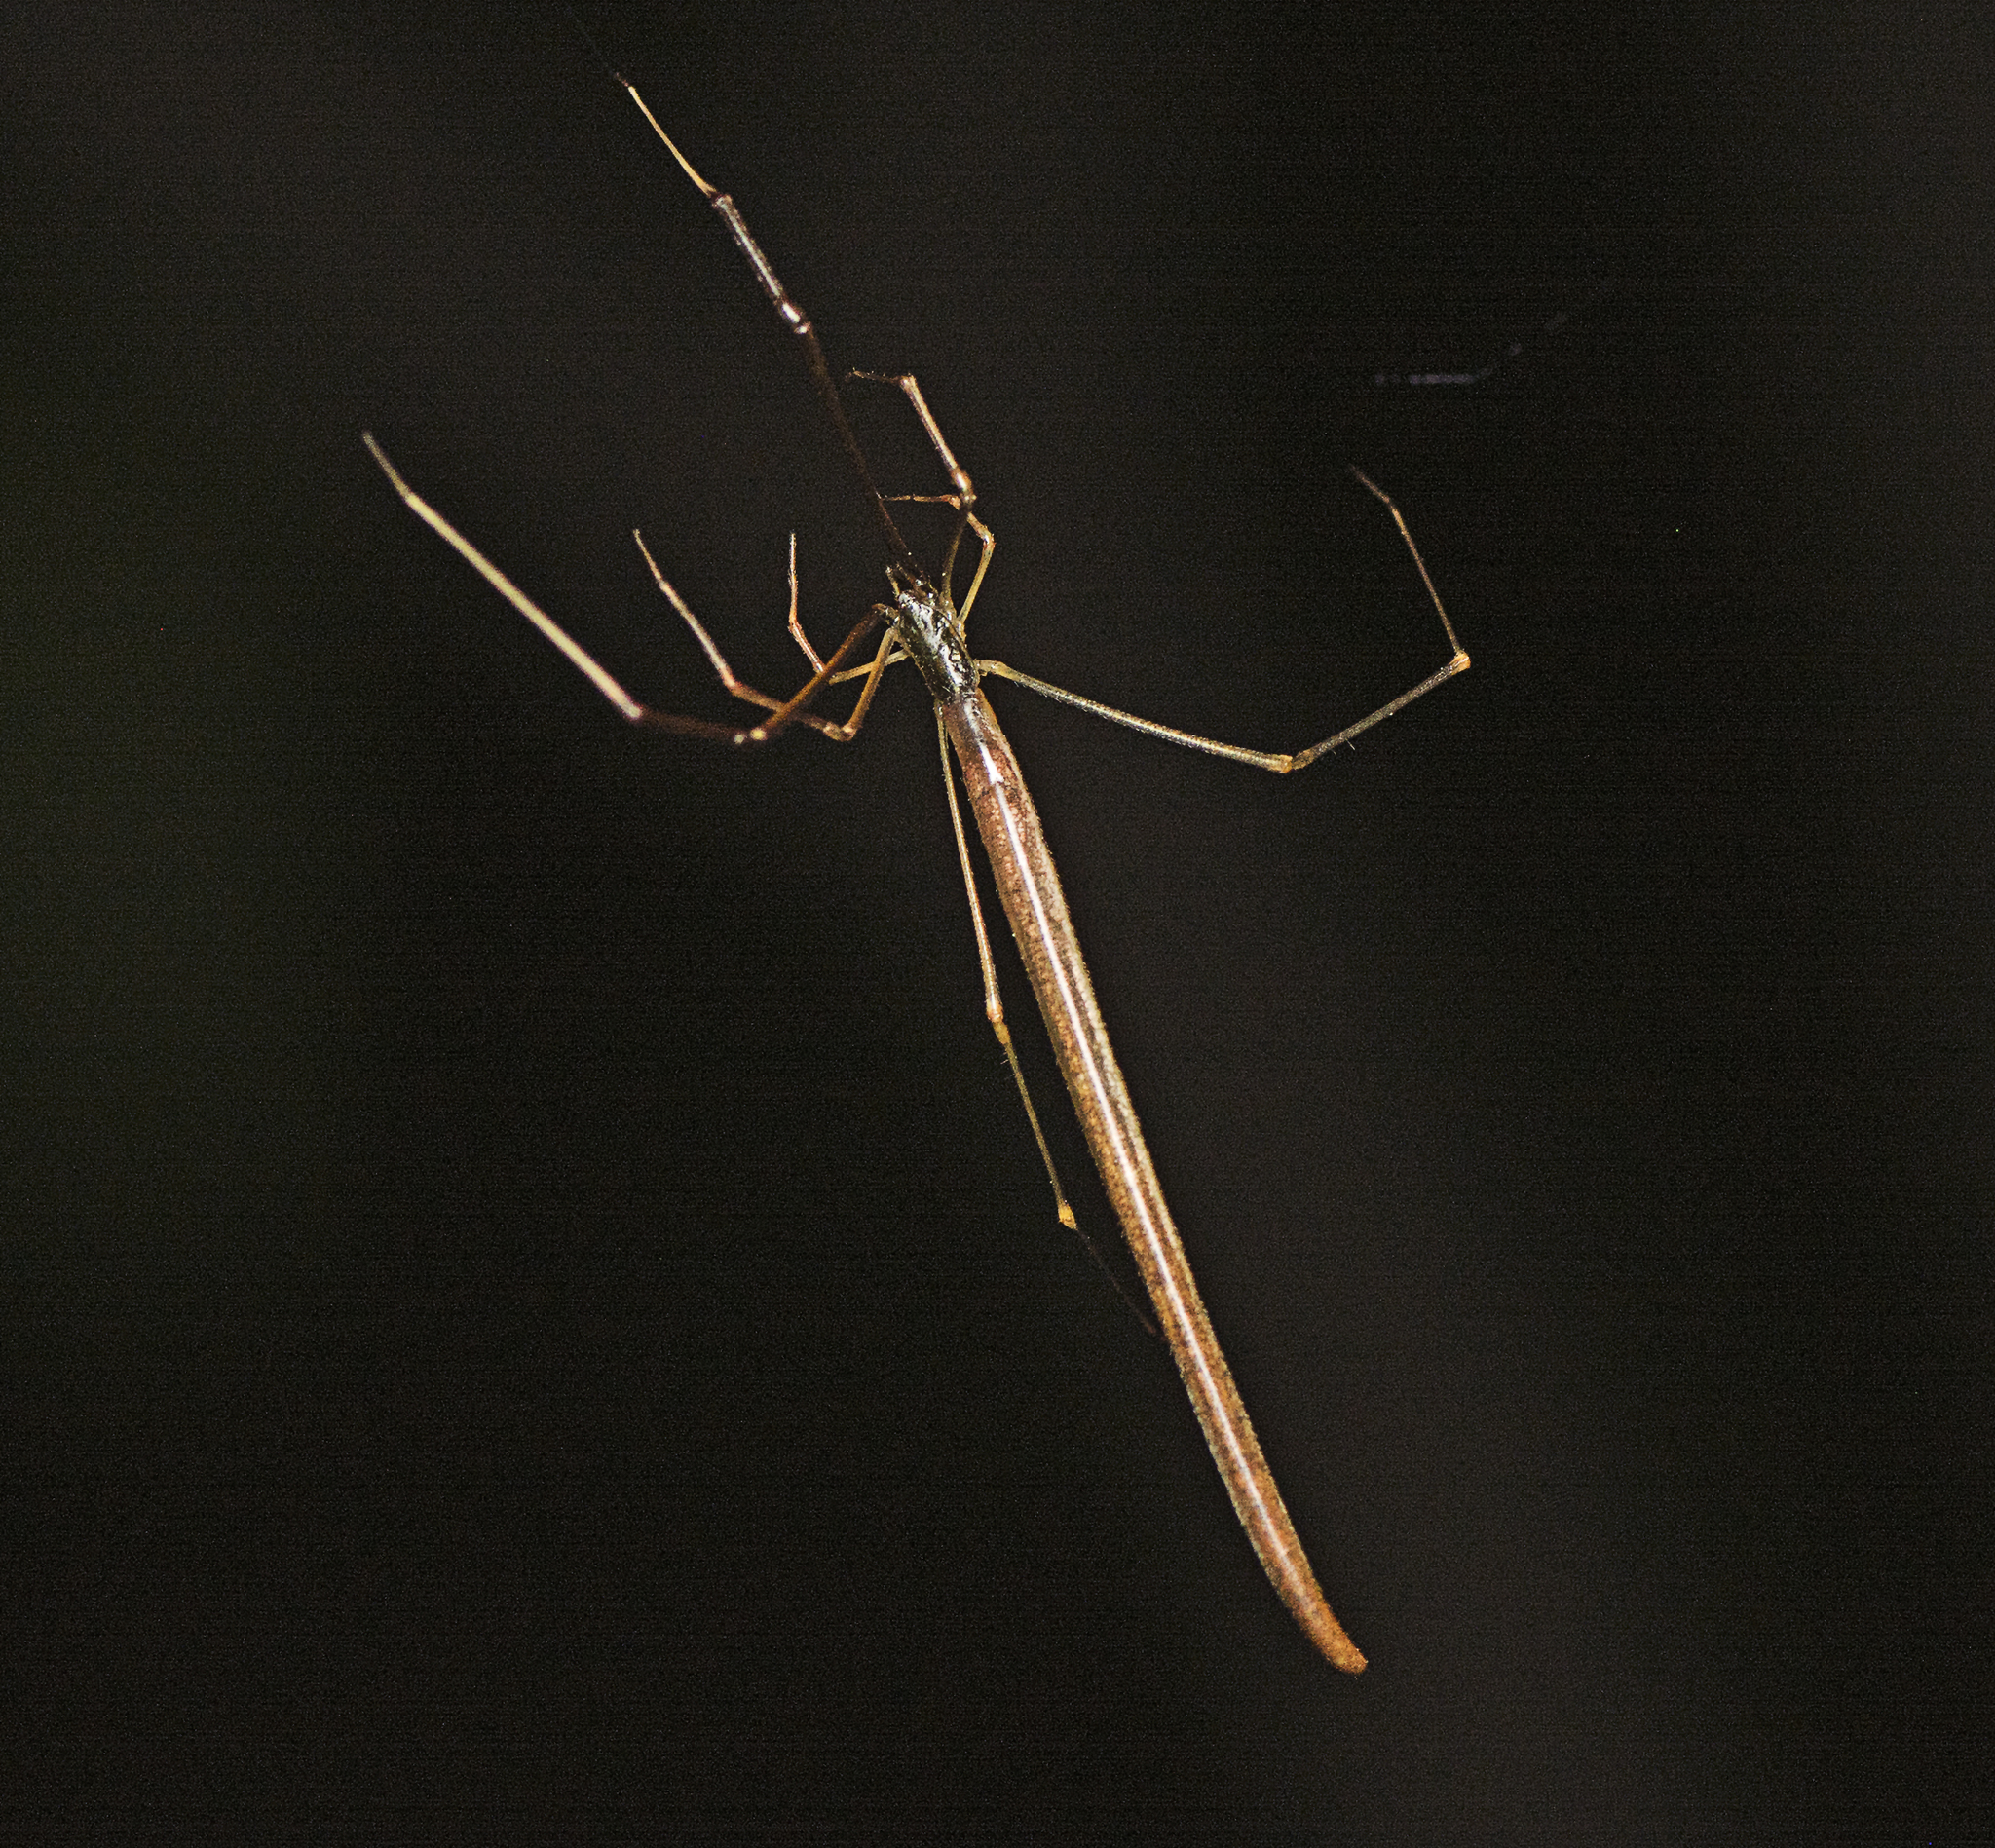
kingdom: Animalia
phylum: Arthropoda
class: Arachnida
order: Araneae
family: Theridiidae
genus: Ariamnes
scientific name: Ariamnes colubrinus
